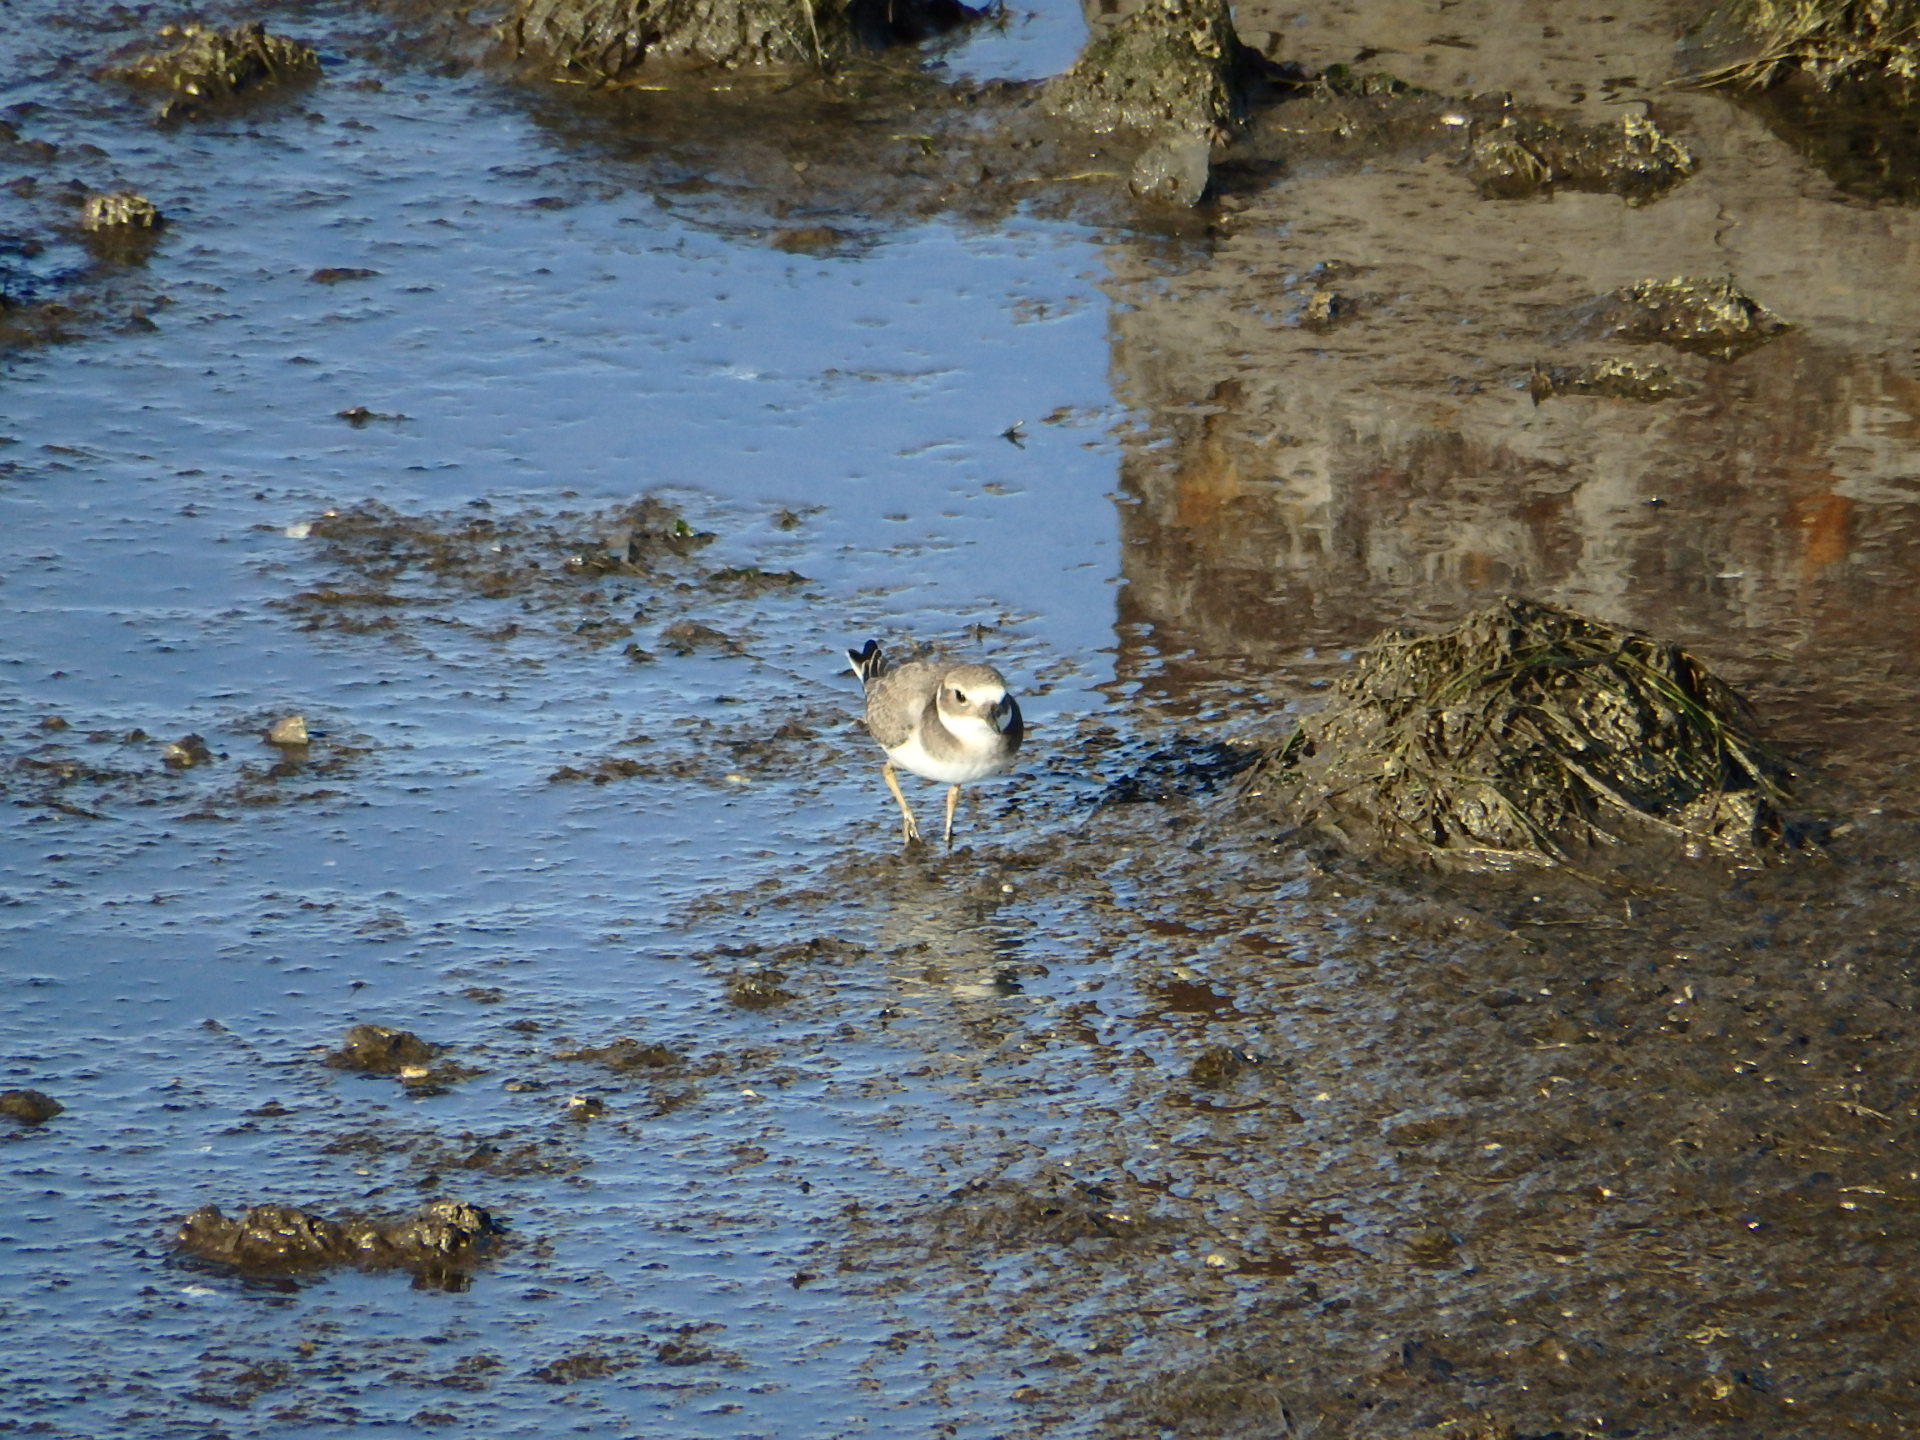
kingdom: Animalia
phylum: Chordata
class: Aves
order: Charadriiformes
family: Charadriidae
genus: Charadrius
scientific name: Charadrius hiaticula
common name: Common ringed plover
